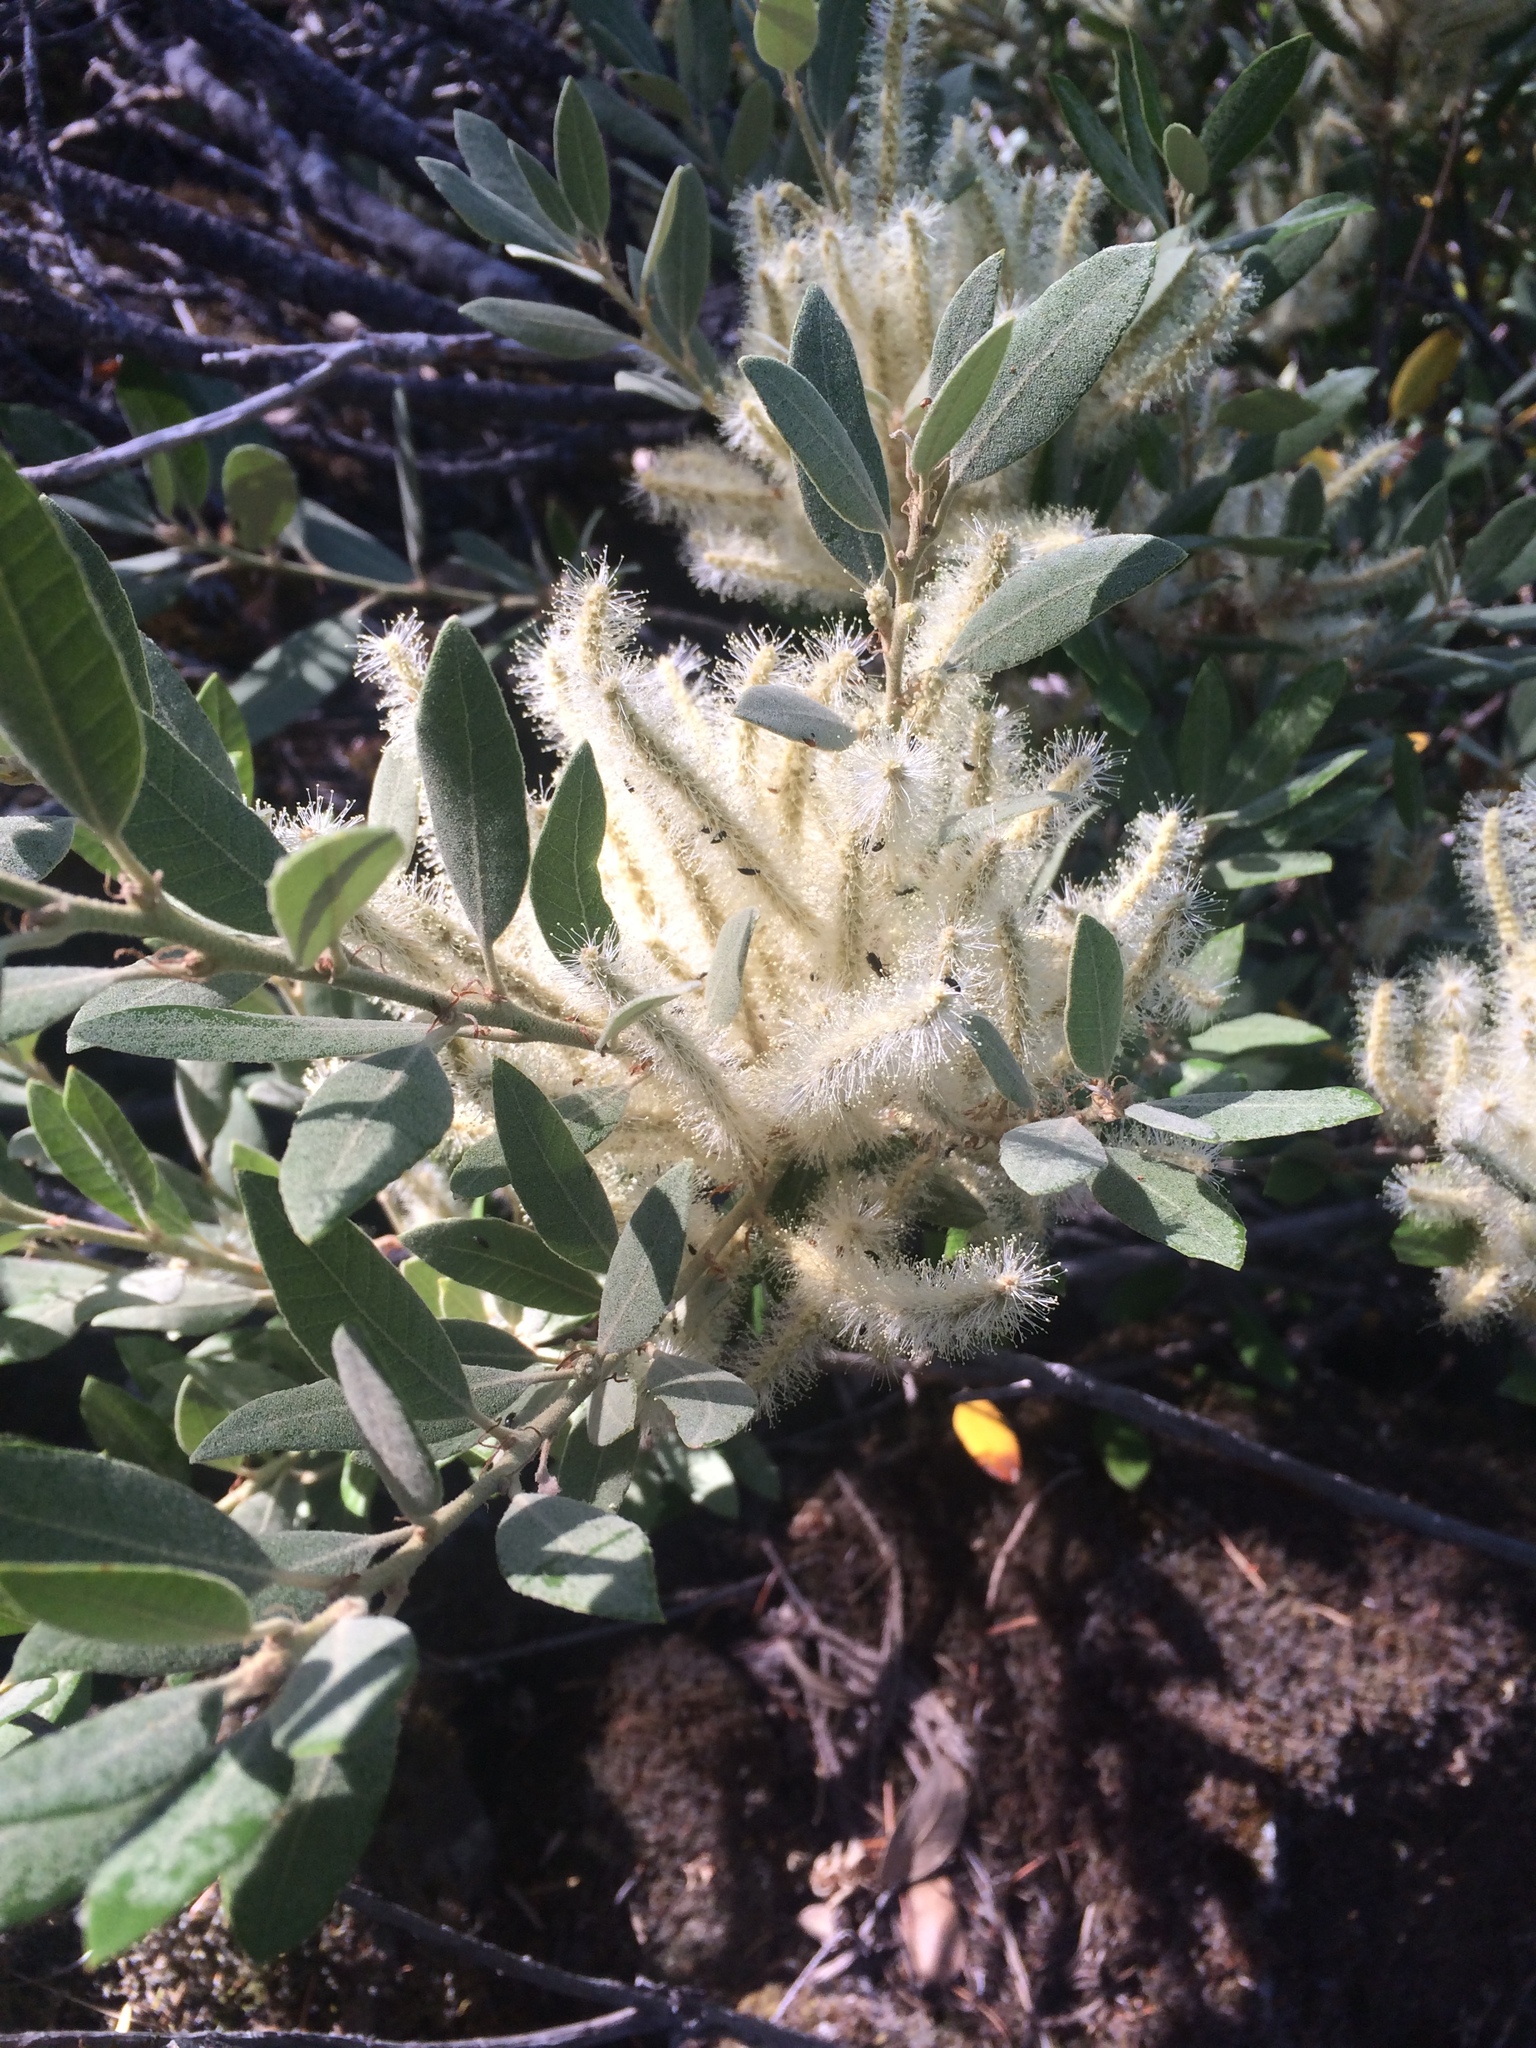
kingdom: Plantae
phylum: Tracheophyta
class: Magnoliopsida
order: Fagales
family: Fagaceae
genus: Notholithocarpus
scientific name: Notholithocarpus densiflorus
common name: Tan bark oak
